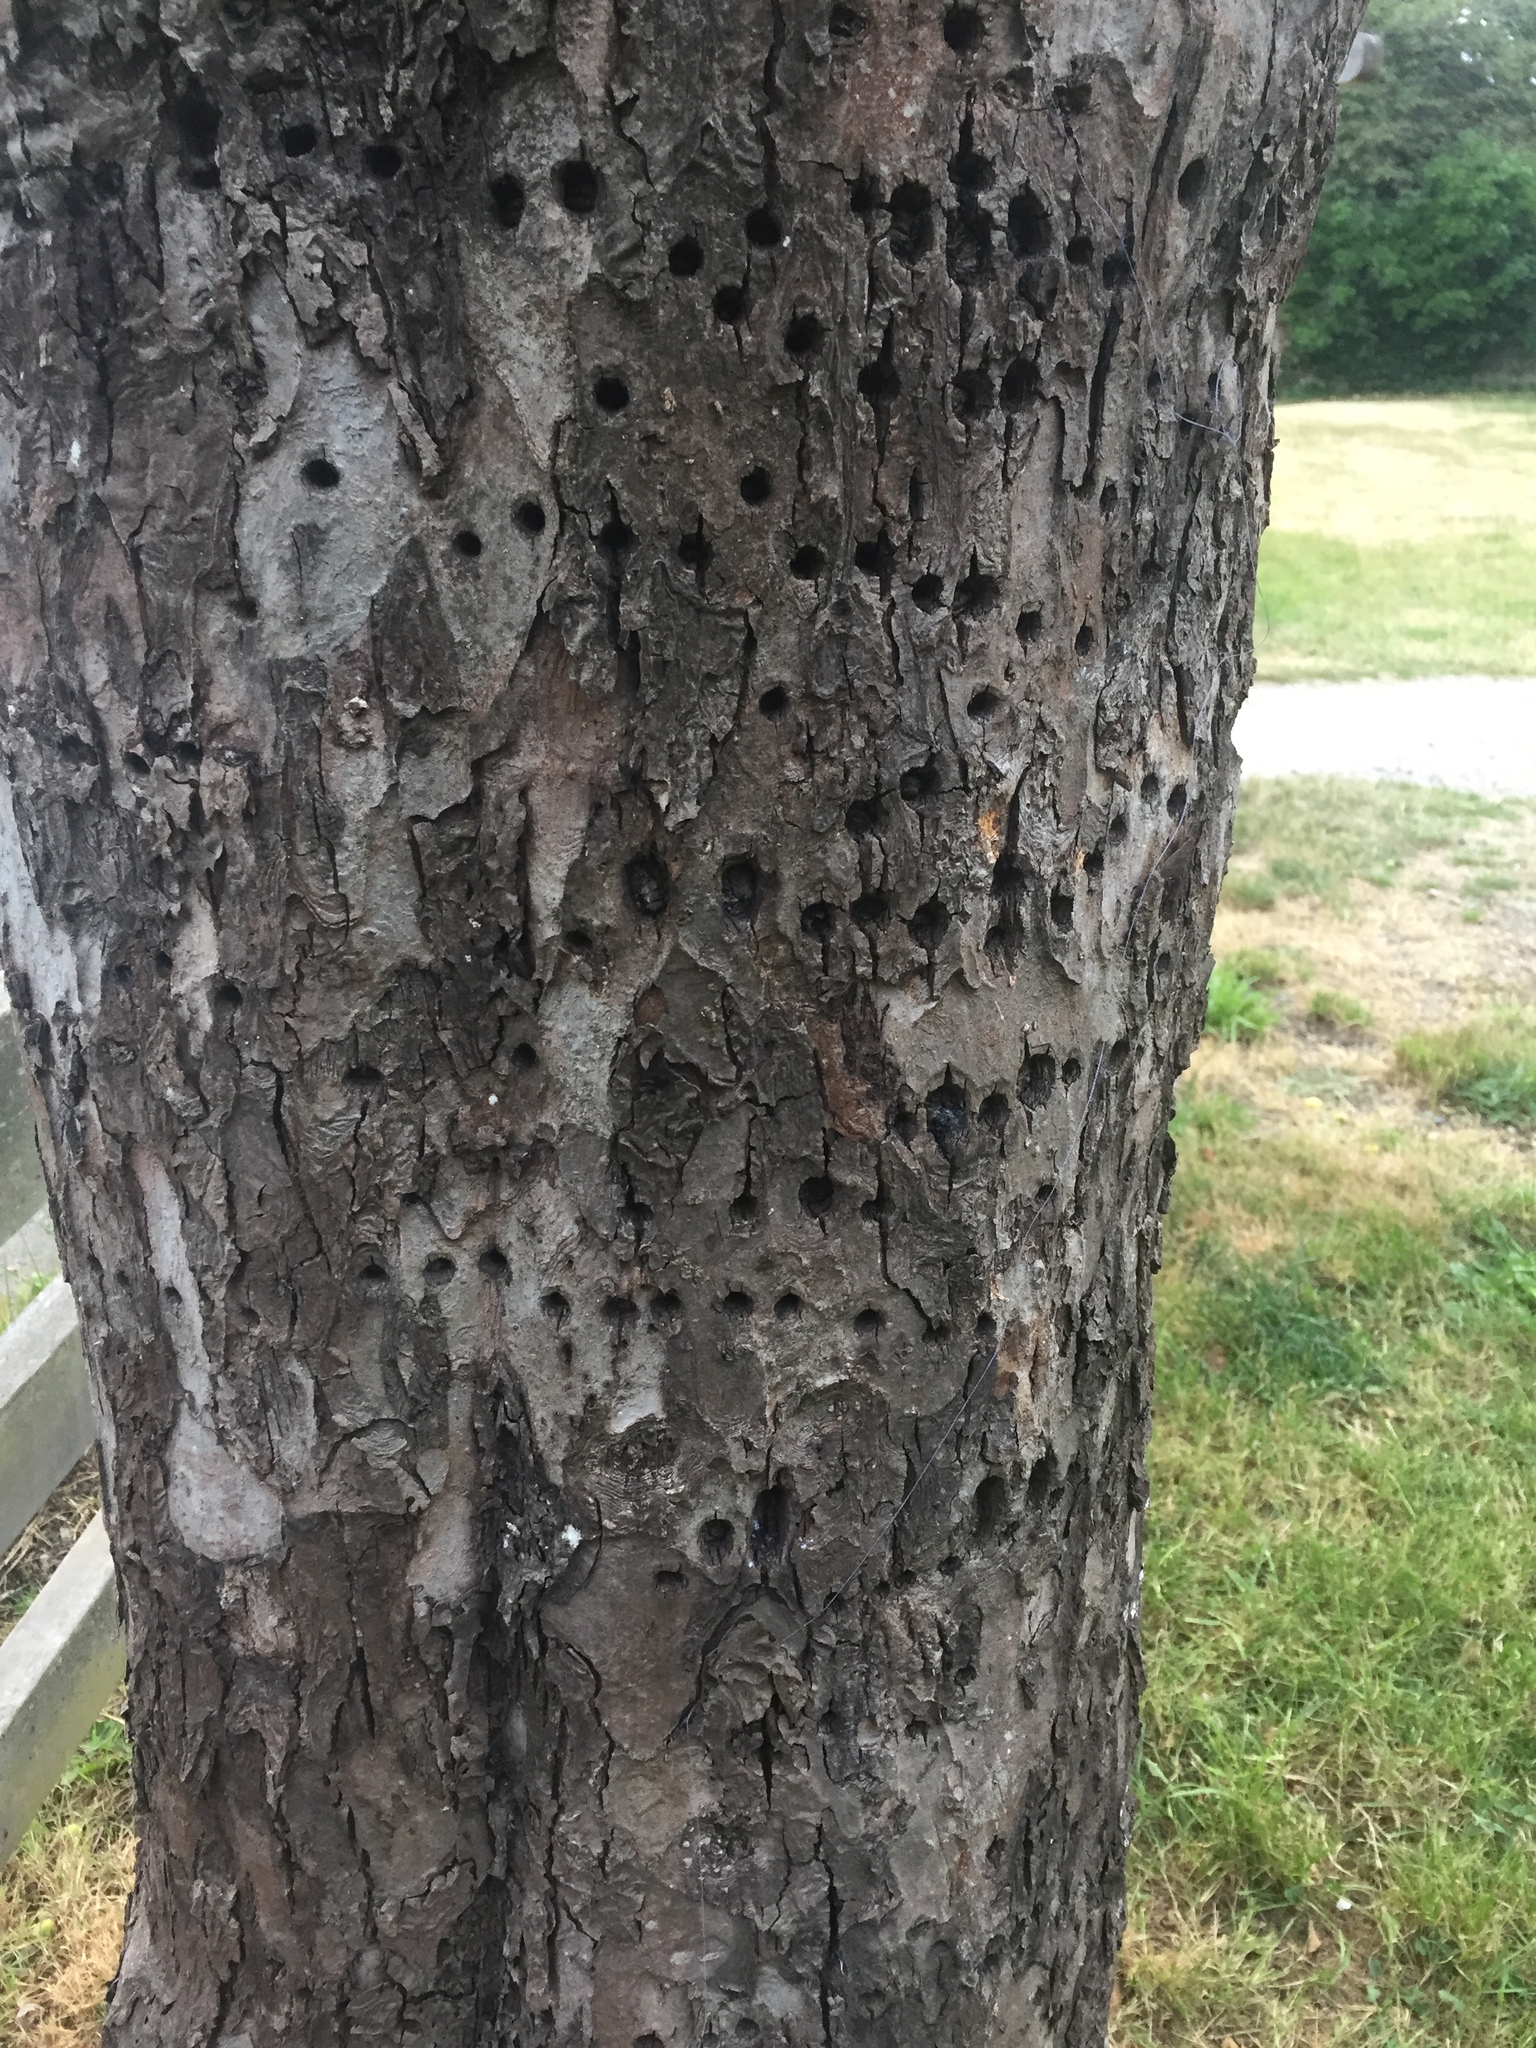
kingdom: Animalia
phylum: Chordata
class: Aves
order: Piciformes
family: Picidae
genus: Sphyrapicus
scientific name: Sphyrapicus ruber
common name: Red-breasted sapsucker
